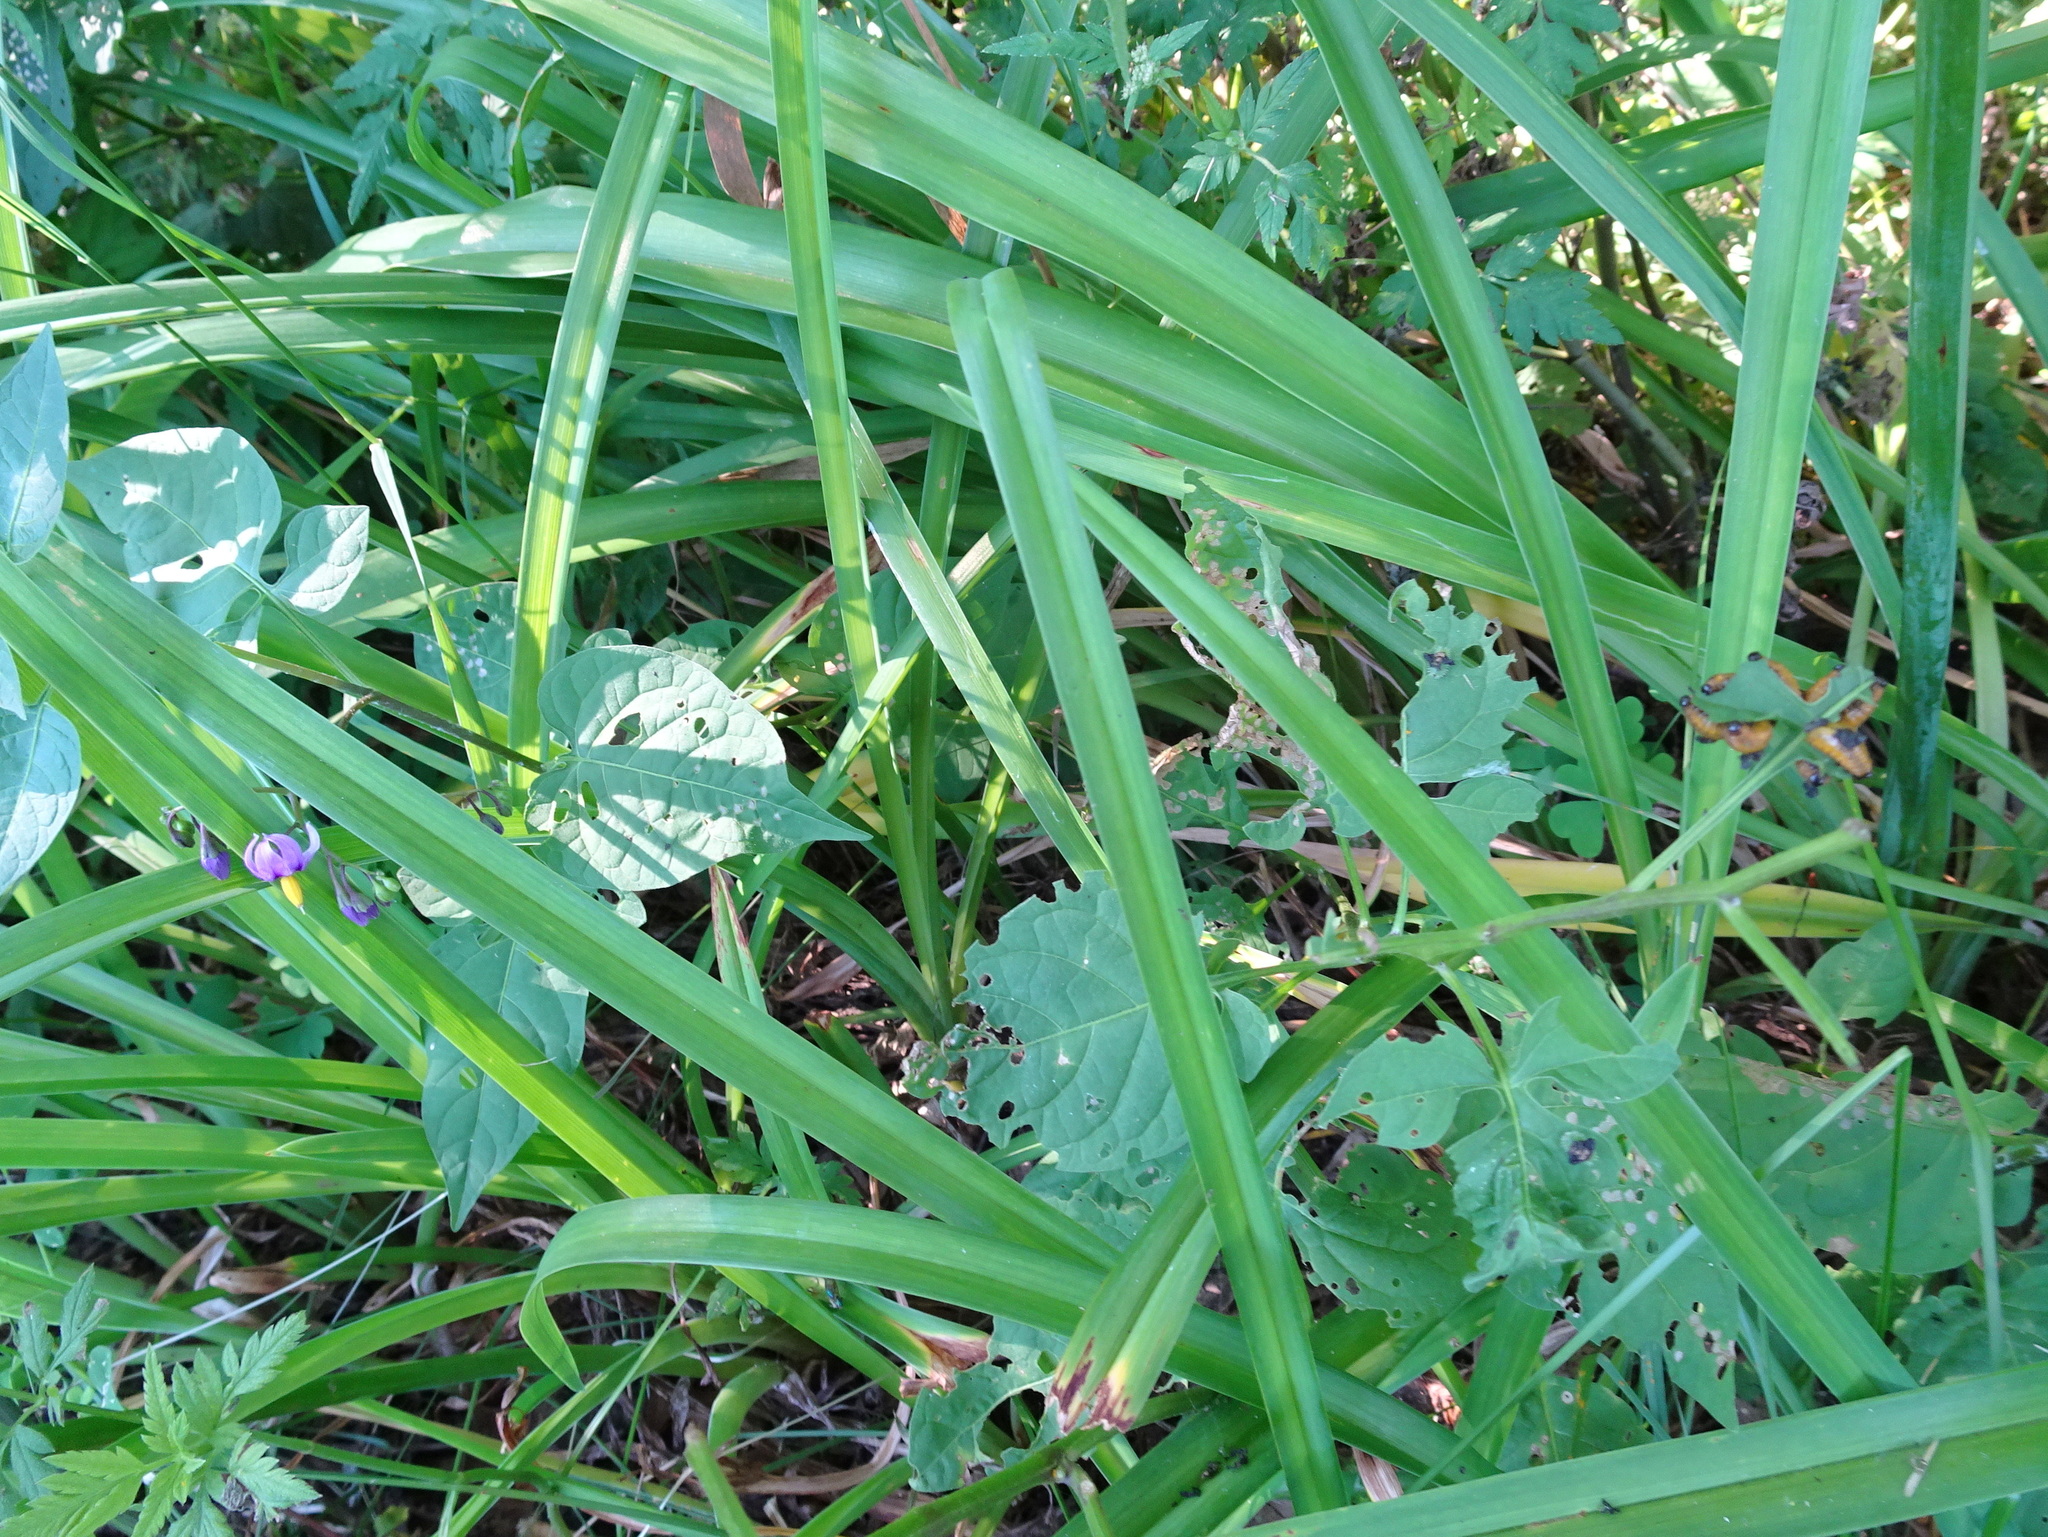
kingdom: Animalia
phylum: Arthropoda
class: Insecta
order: Coleoptera
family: Chrysomelidae
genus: Lema
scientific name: Lema daturaphila
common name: Leaf beetle
